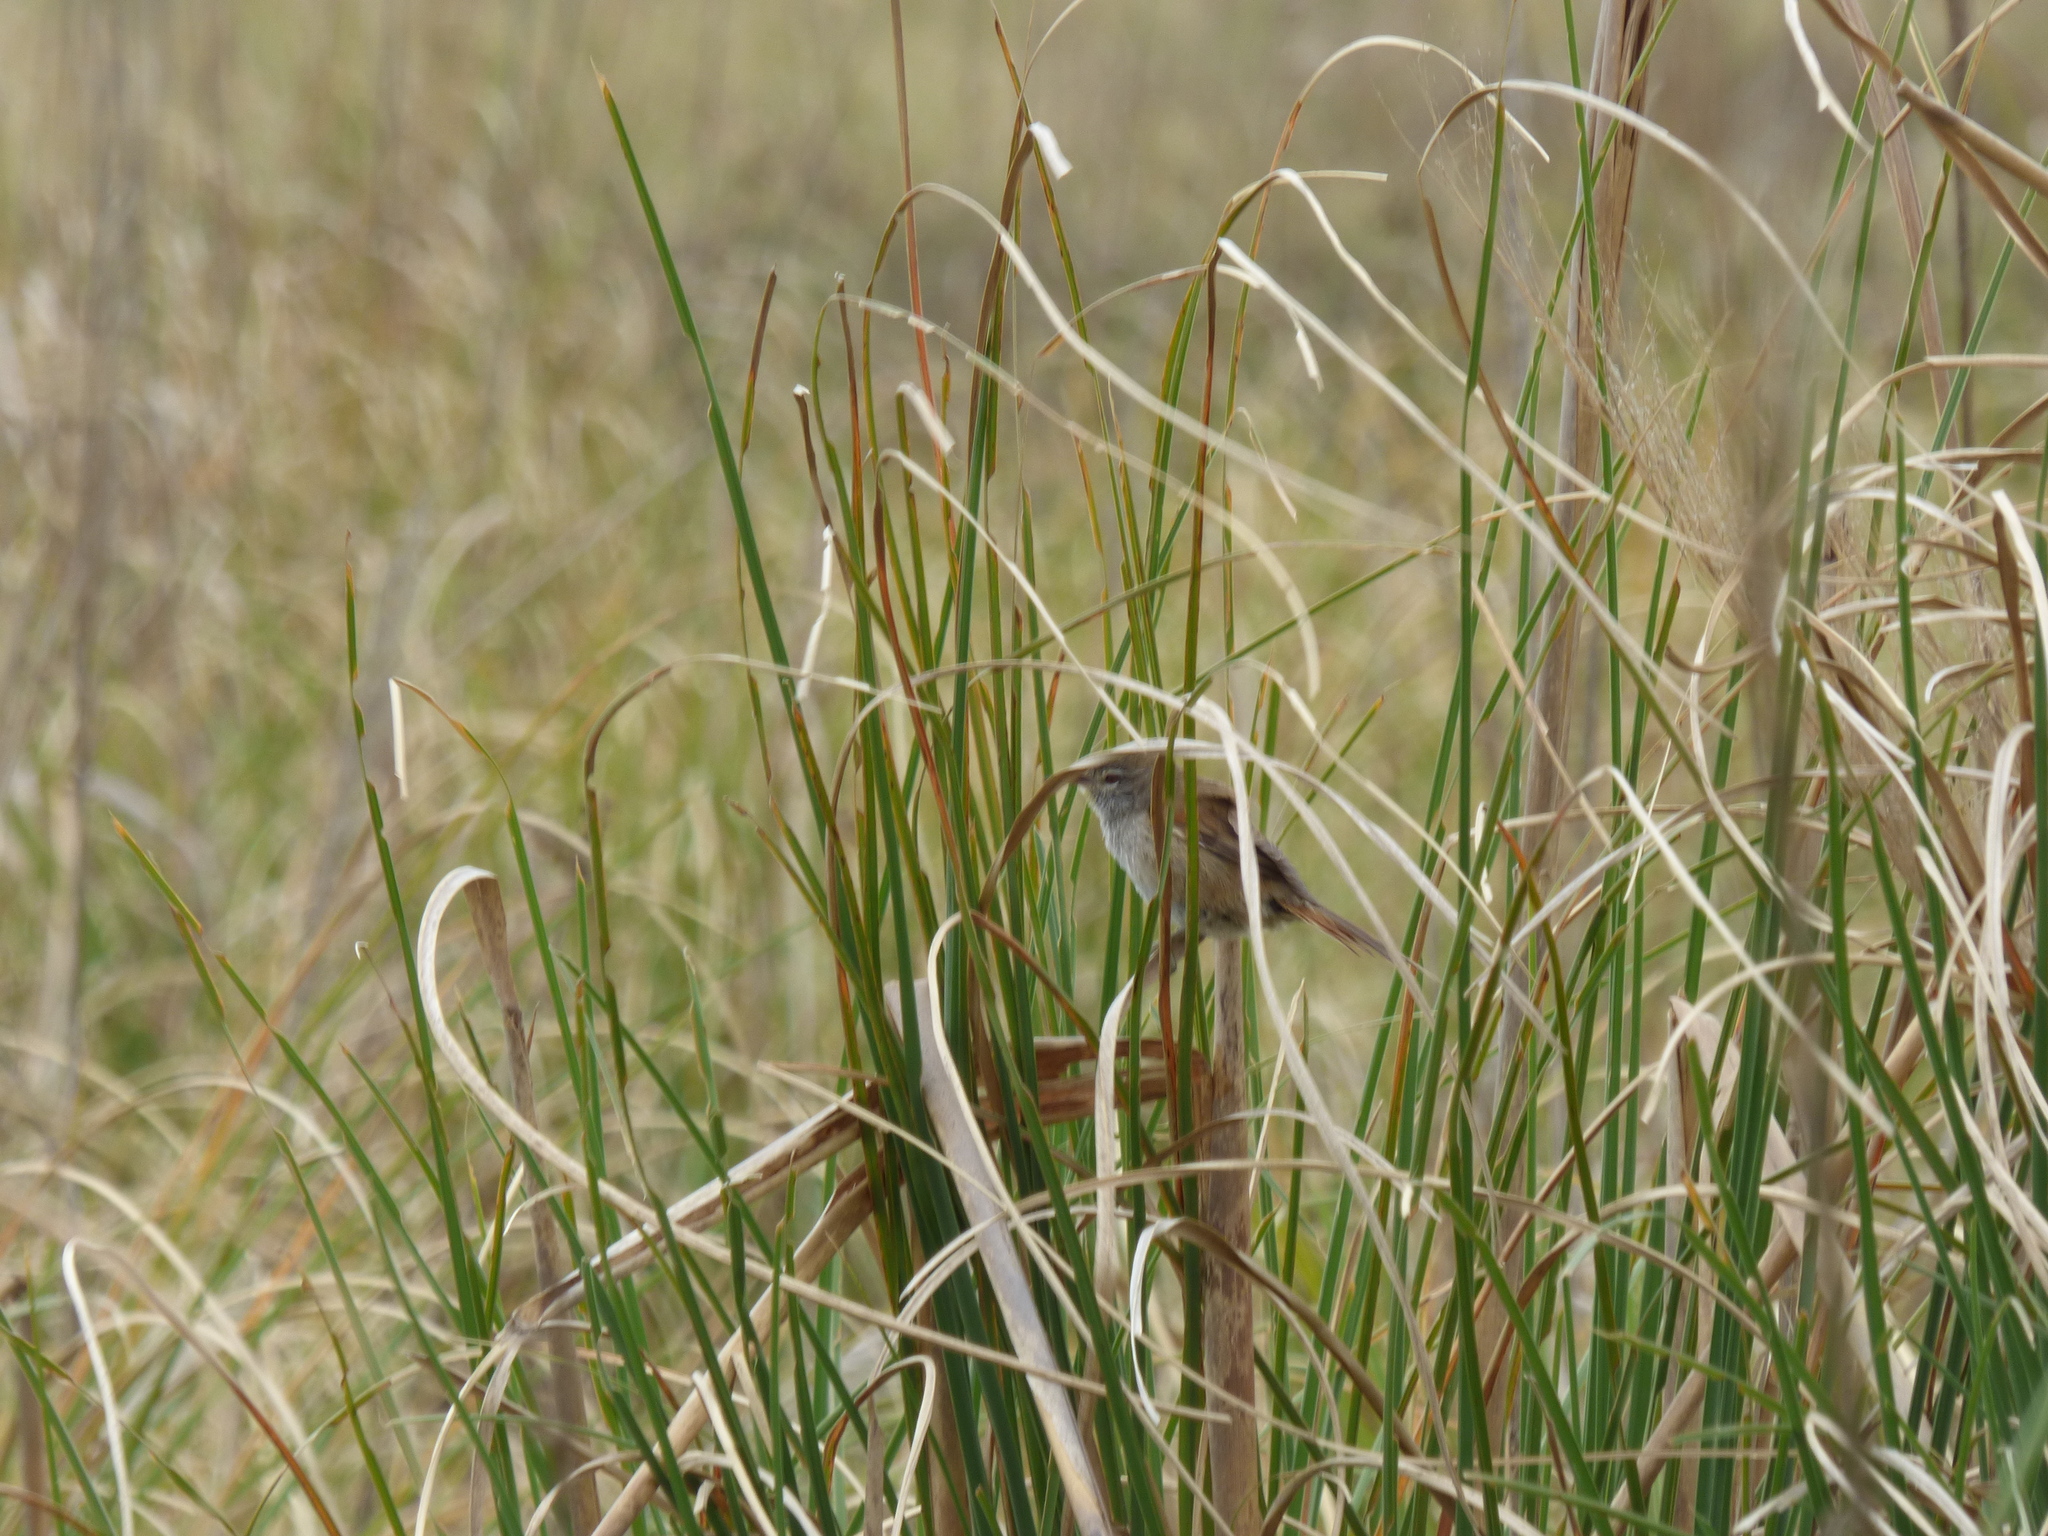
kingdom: Animalia
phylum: Chordata
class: Aves
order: Passeriformes
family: Furnariidae
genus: Cranioleuca
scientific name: Cranioleuca sulphurifera
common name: Sulphur-bearded spinetail
